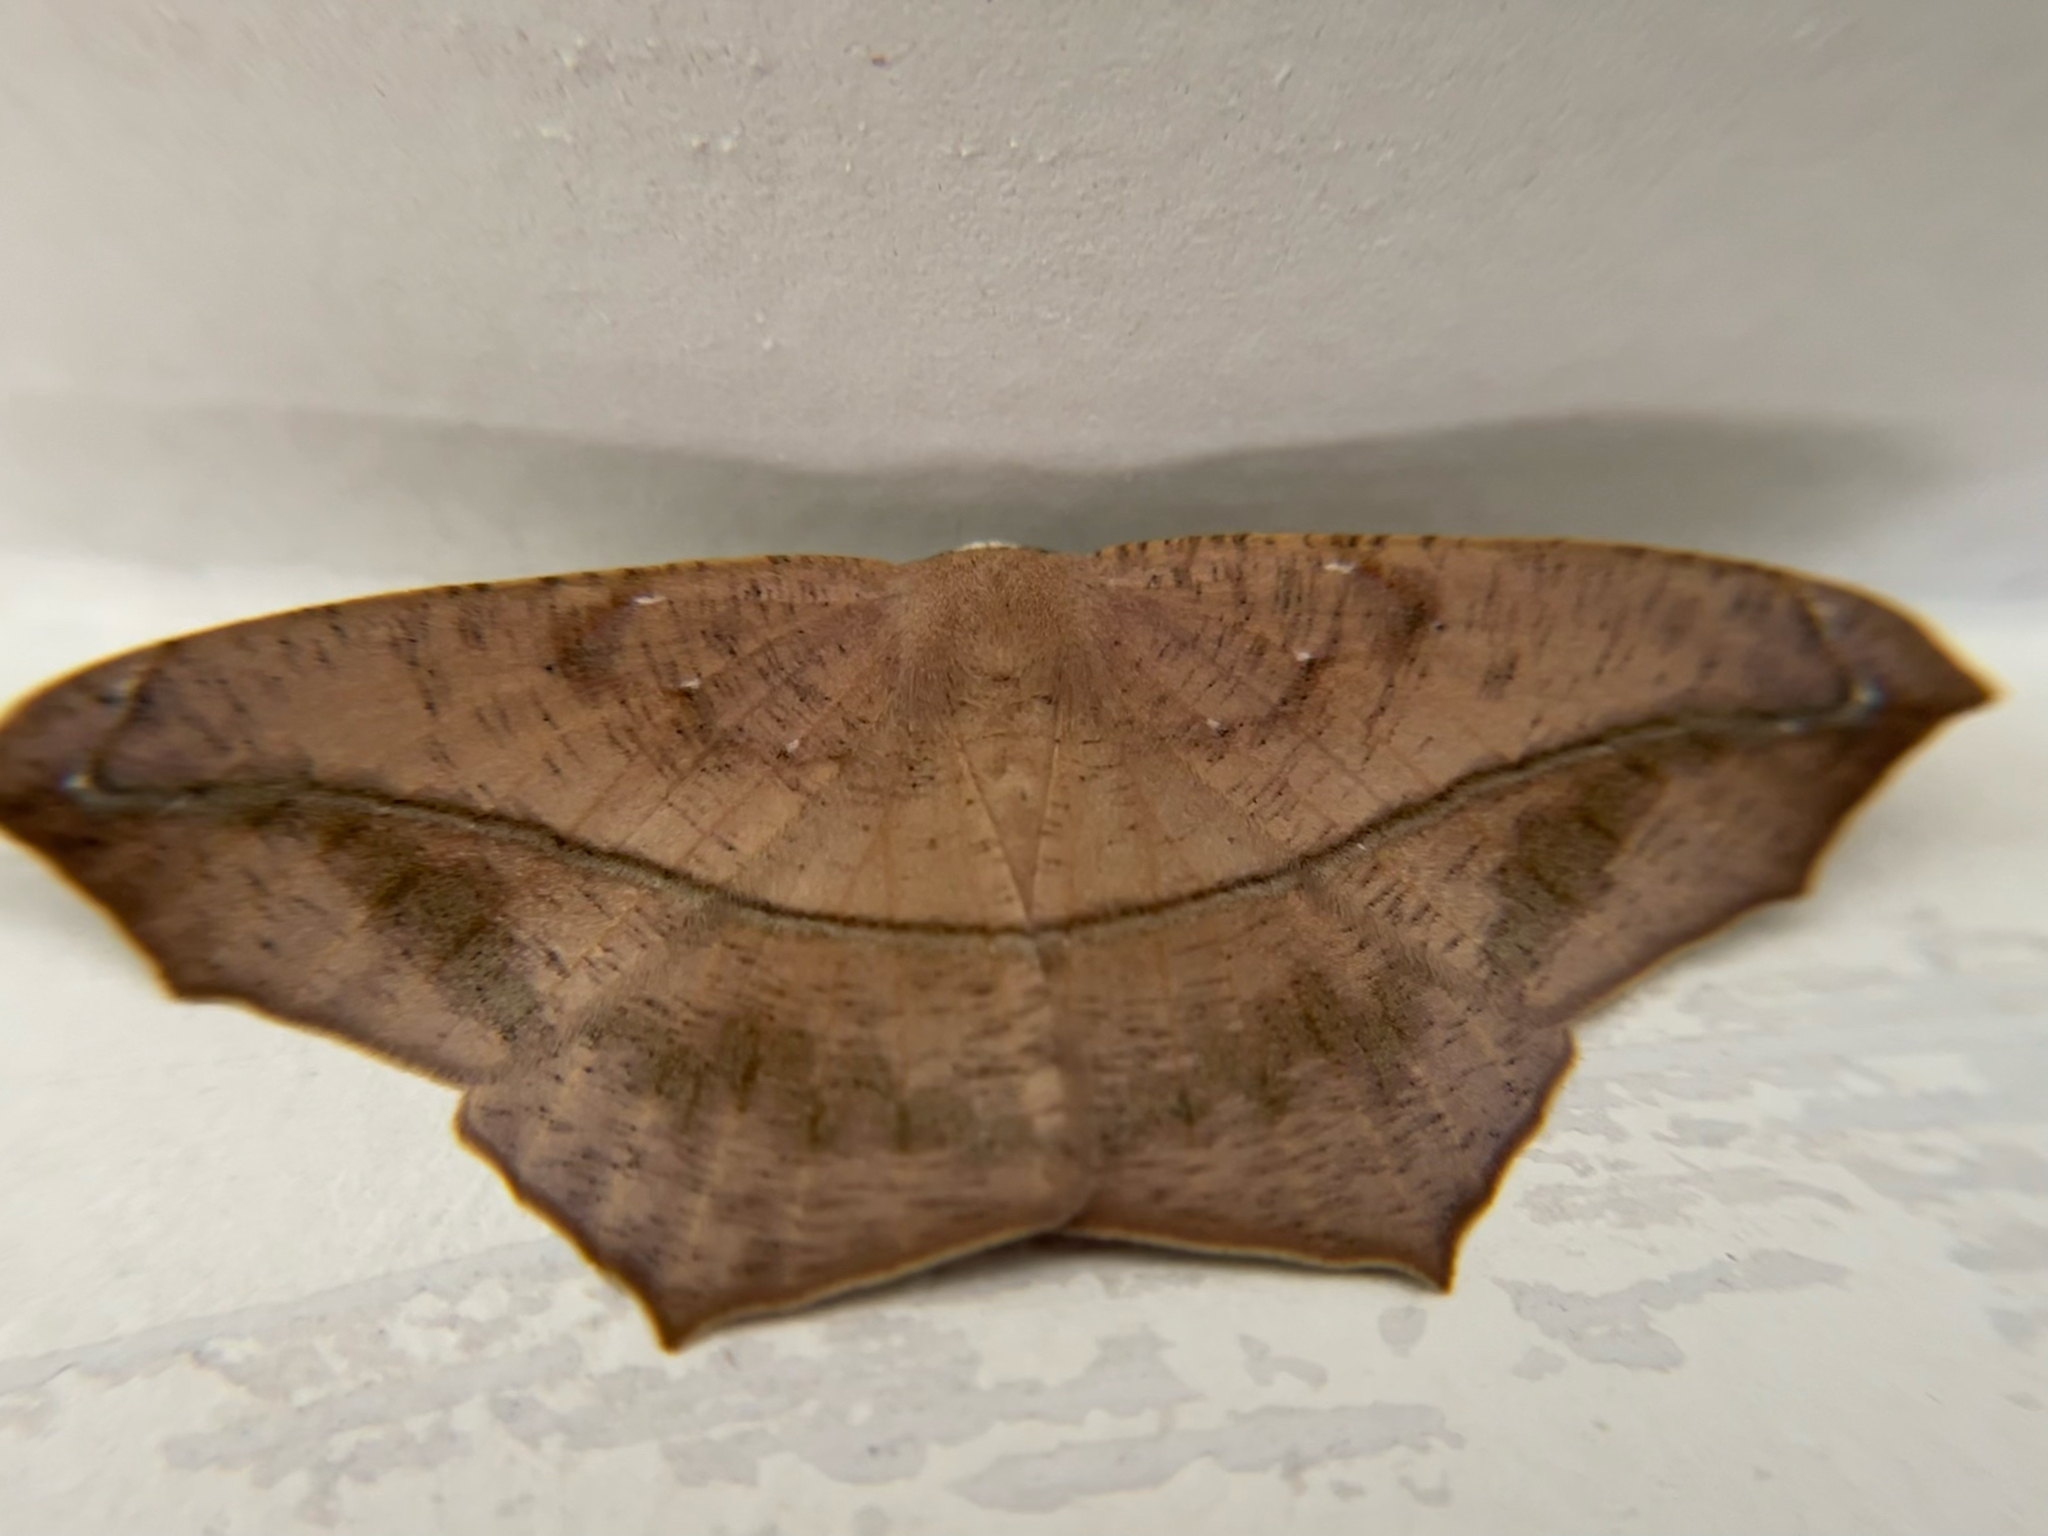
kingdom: Animalia
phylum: Arthropoda
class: Insecta
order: Lepidoptera
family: Geometridae
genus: Prochoerodes
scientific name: Prochoerodes lineola
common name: Large maple spanworm
